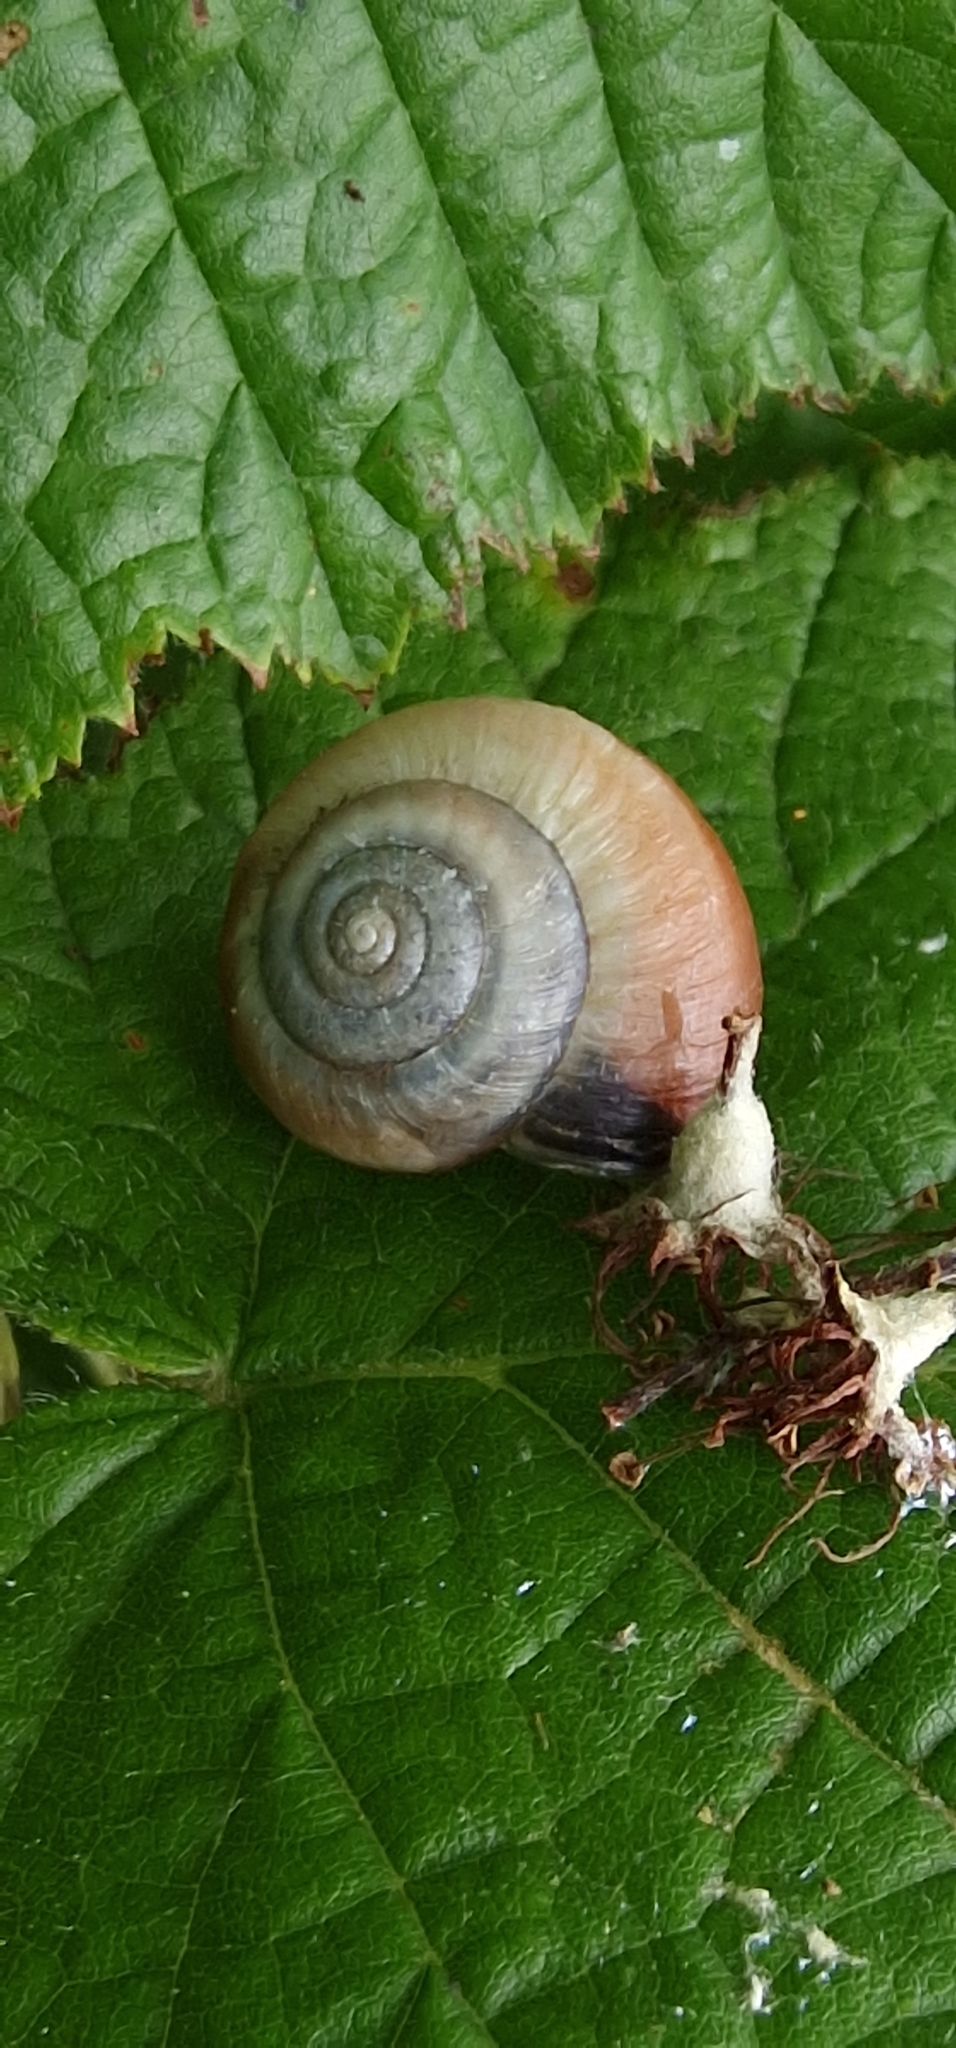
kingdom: Animalia
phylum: Mollusca
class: Gastropoda
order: Stylommatophora
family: Hygromiidae
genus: Monacha
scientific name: Monacha cantiana
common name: Kentish snail
